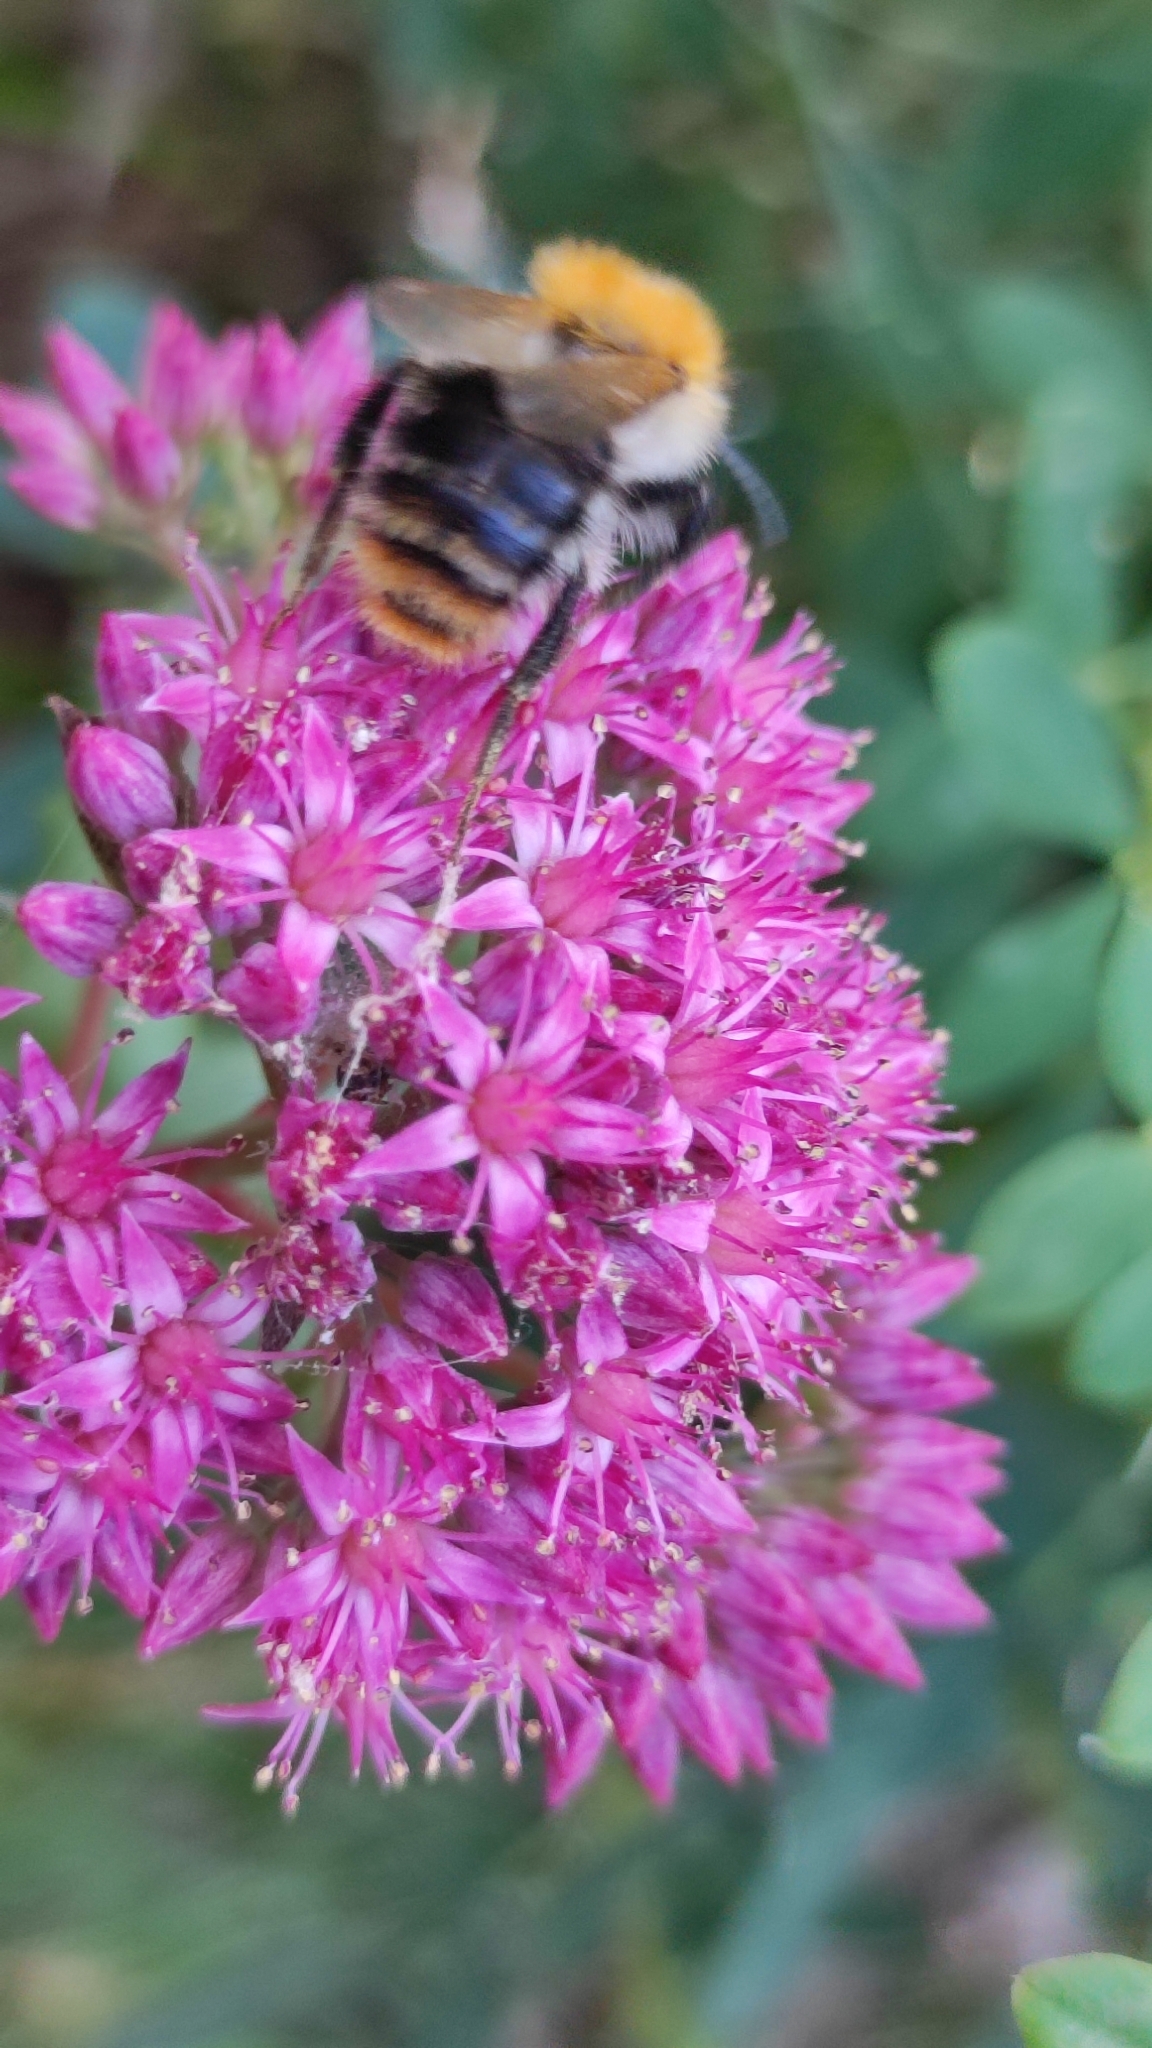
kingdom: Animalia
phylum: Arthropoda
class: Insecta
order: Hymenoptera
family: Apidae
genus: Bombus
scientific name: Bombus pascuorum
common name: Common carder bee
